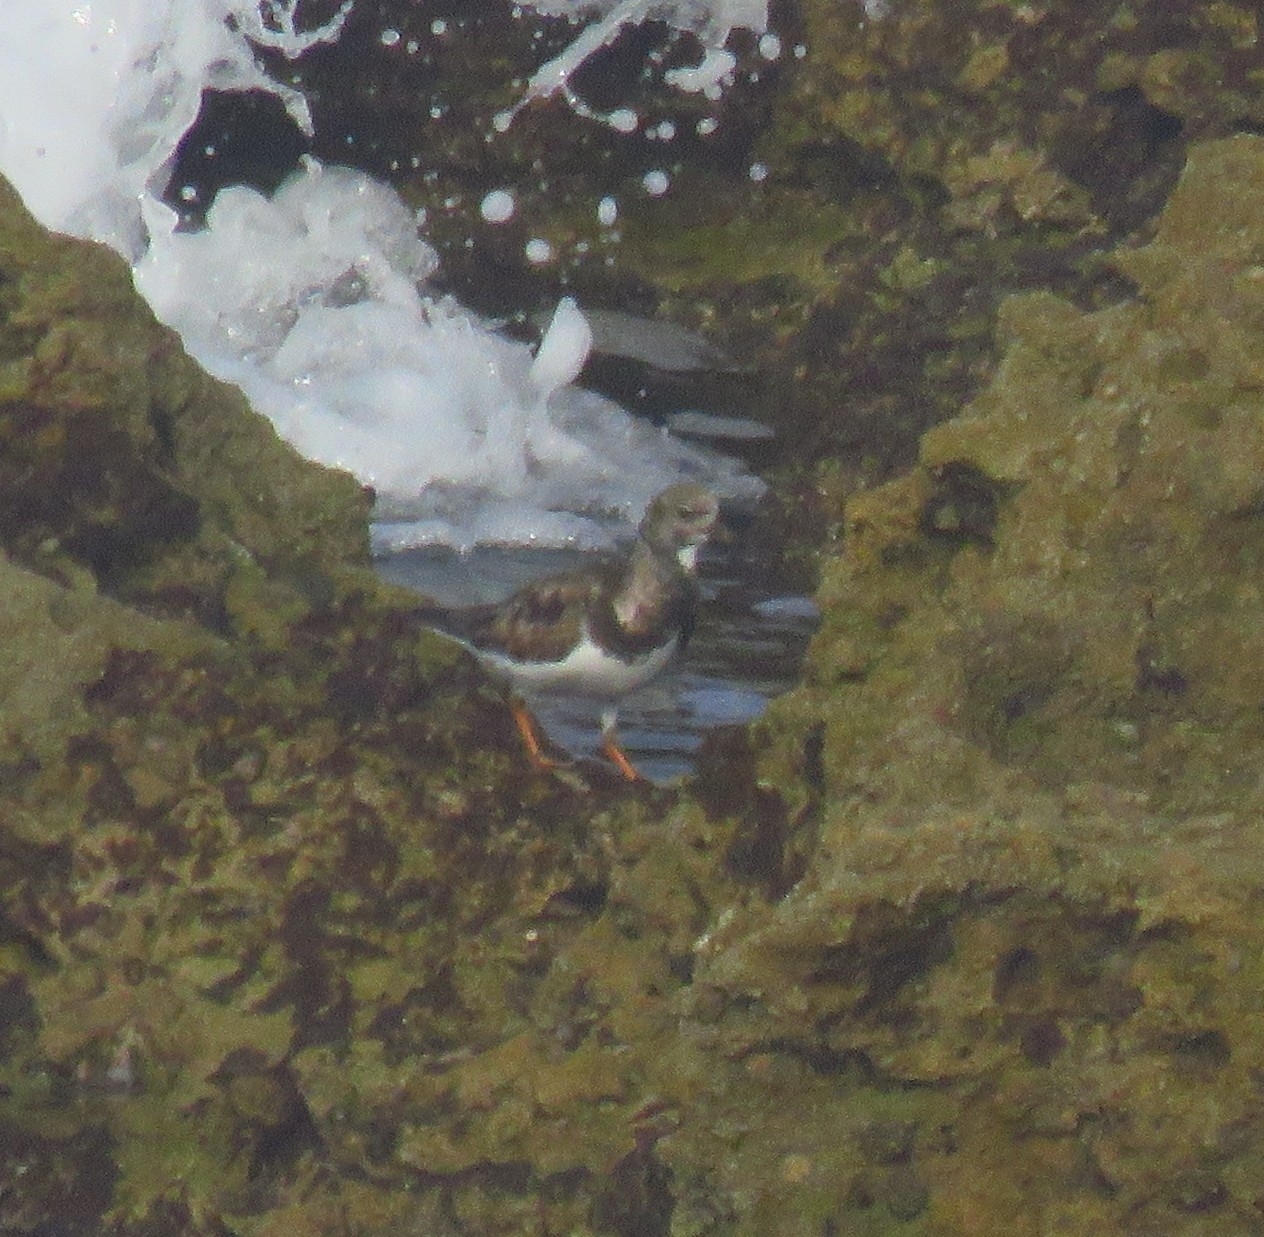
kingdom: Animalia
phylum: Chordata
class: Aves
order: Charadriiformes
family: Scolopacidae
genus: Arenaria
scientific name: Arenaria interpres
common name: Ruddy turnstone
